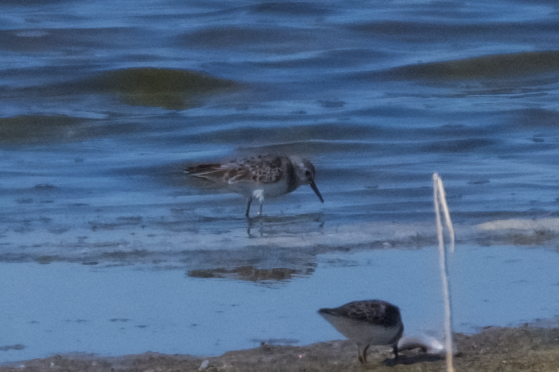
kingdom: Animalia
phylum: Chordata
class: Aves
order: Charadriiformes
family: Scolopacidae
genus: Calidris
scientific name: Calidris minutilla
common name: Least sandpiper
